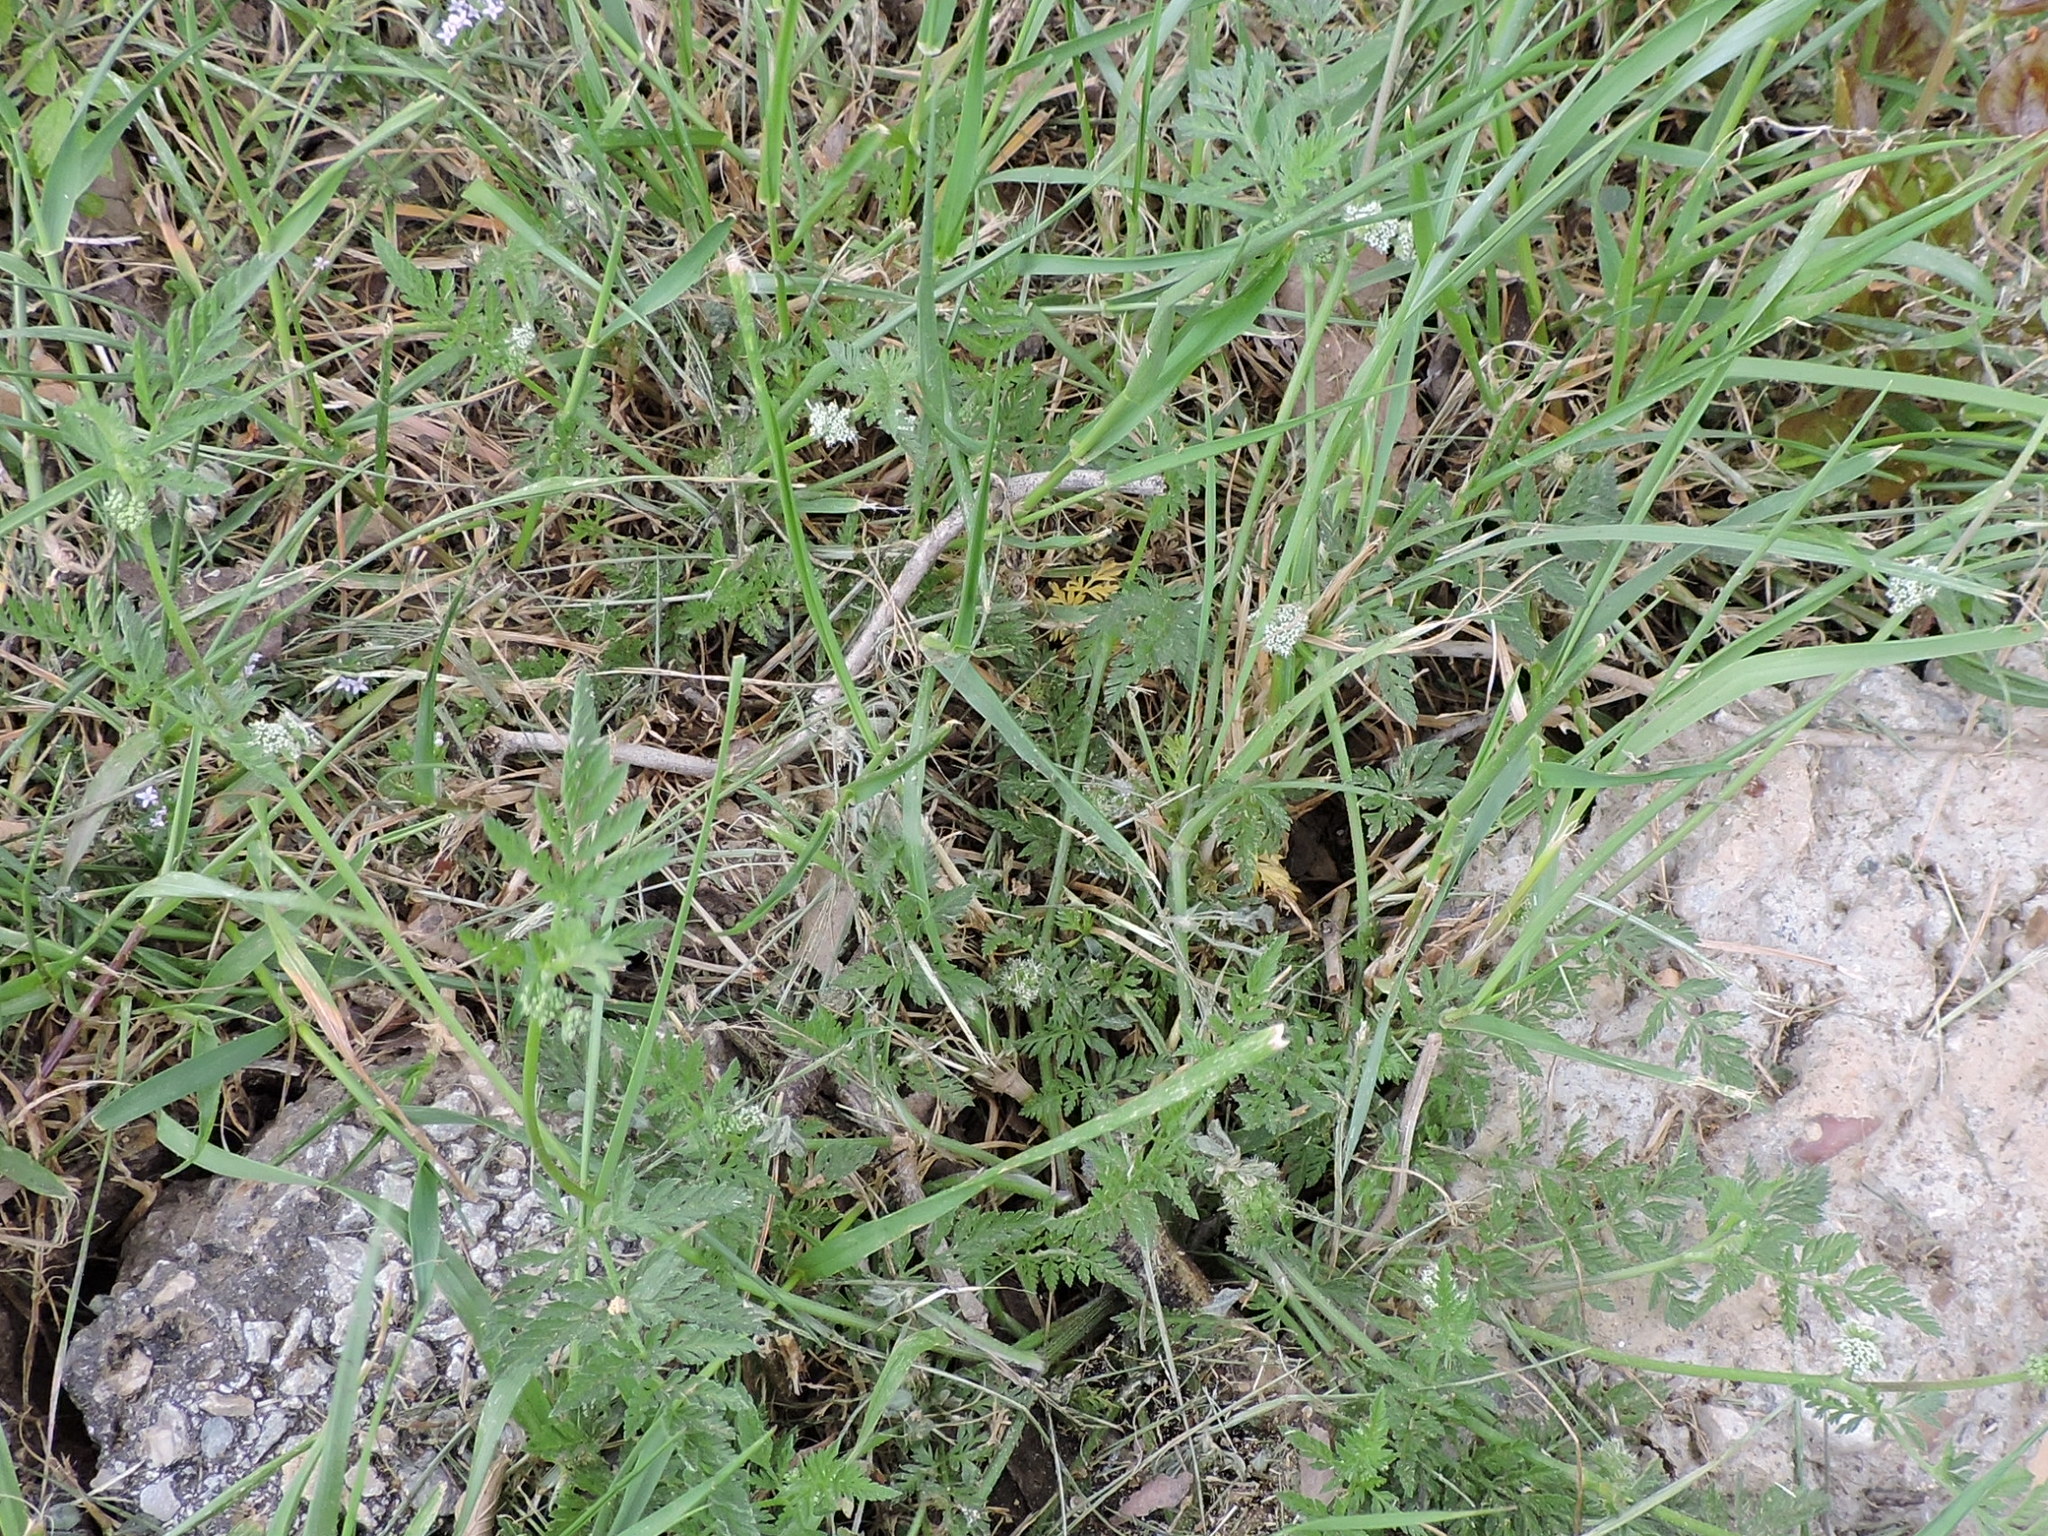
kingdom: Plantae
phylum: Tracheophyta
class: Magnoliopsida
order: Apiales
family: Apiaceae
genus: Torilis
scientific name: Torilis nodosa
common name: Knotted hedge-parsley
